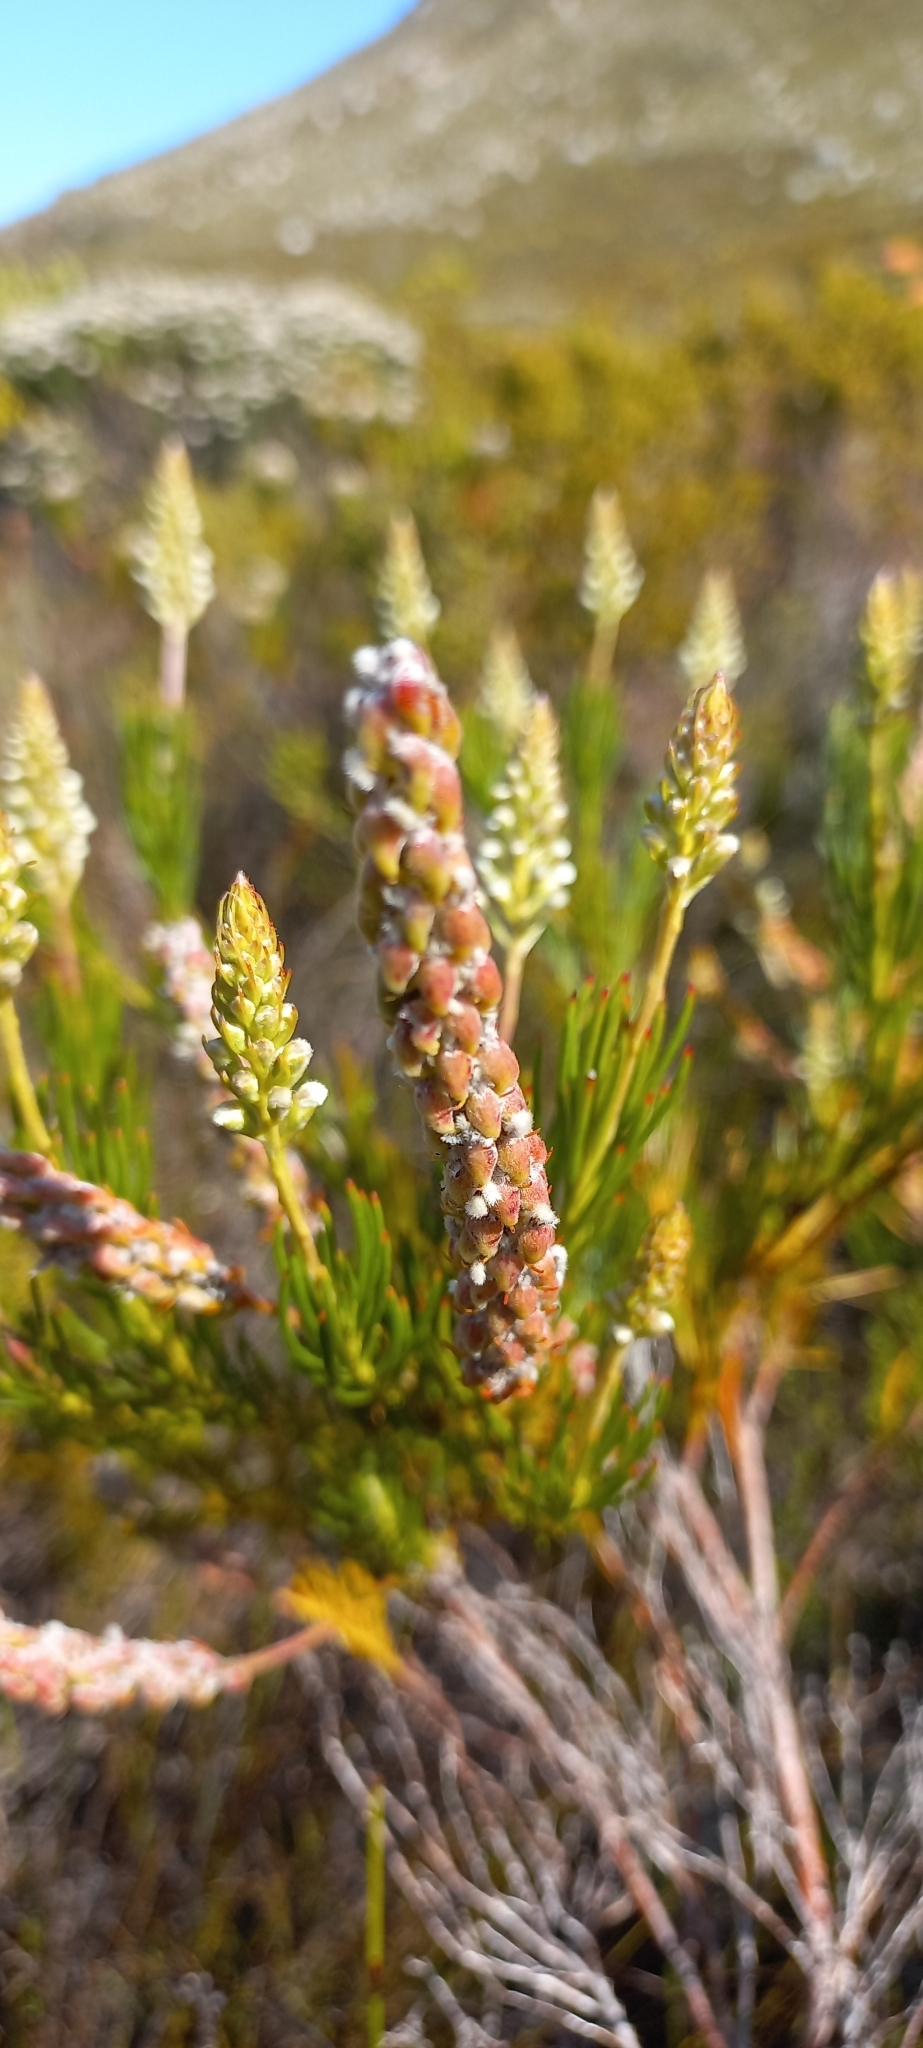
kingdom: Plantae
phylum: Tracheophyta
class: Magnoliopsida
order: Proteales
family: Proteaceae
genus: Spatalla
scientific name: Spatalla curvifolia
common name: White-stalked spoon
